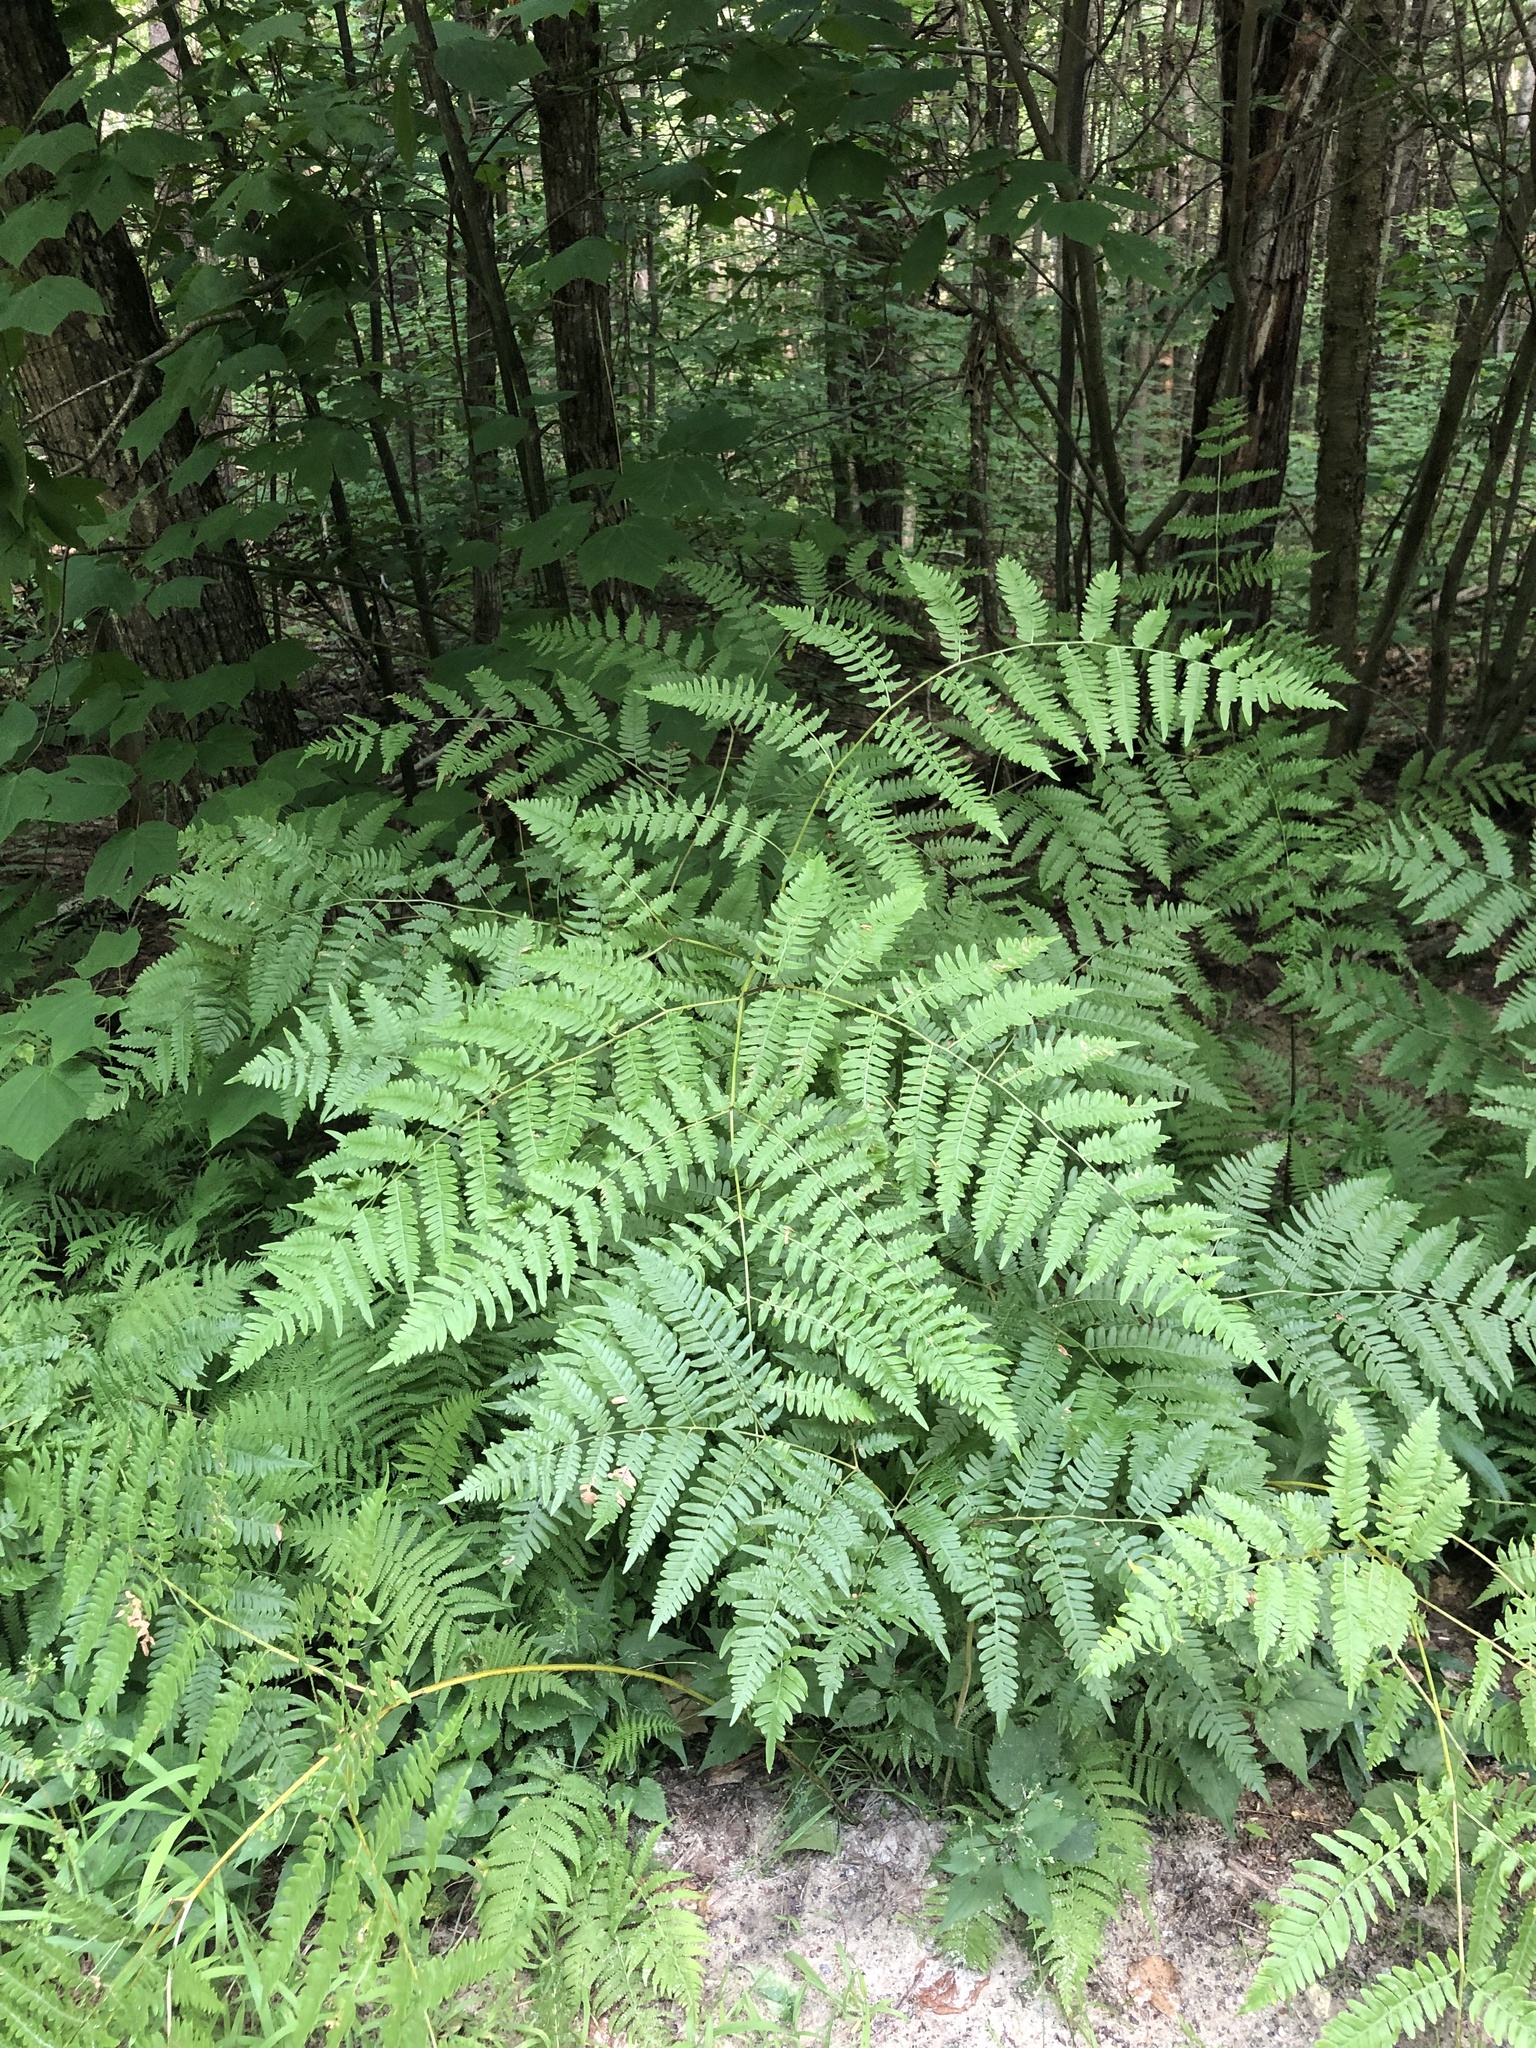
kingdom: Plantae
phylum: Tracheophyta
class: Polypodiopsida
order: Polypodiales
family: Dennstaedtiaceae
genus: Pteridium
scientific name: Pteridium aquilinum
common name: Bracken
